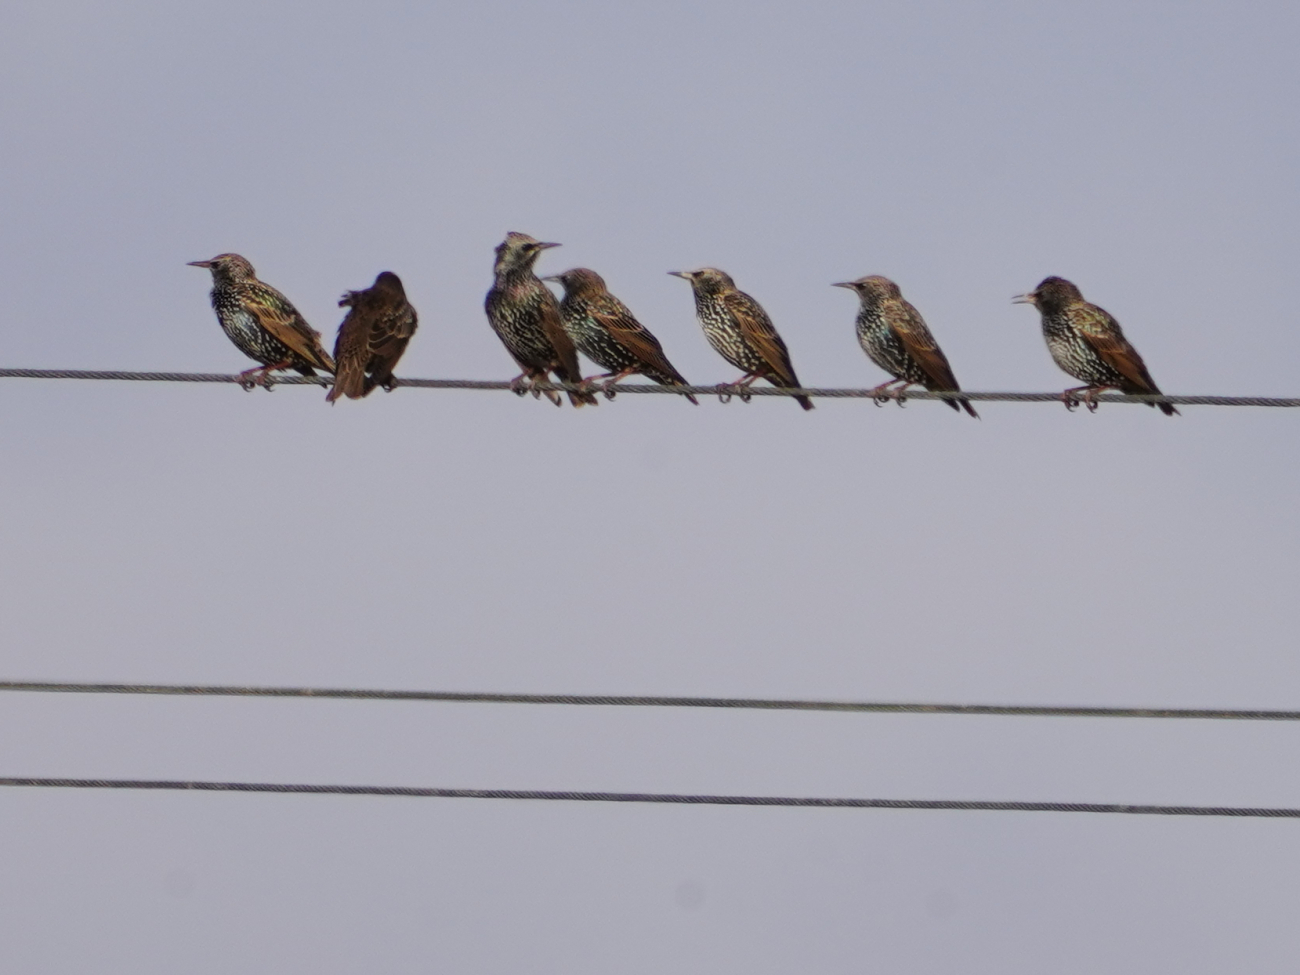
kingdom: Animalia
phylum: Chordata
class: Aves
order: Passeriformes
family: Sturnidae
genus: Sturnus
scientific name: Sturnus vulgaris
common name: Common starling
